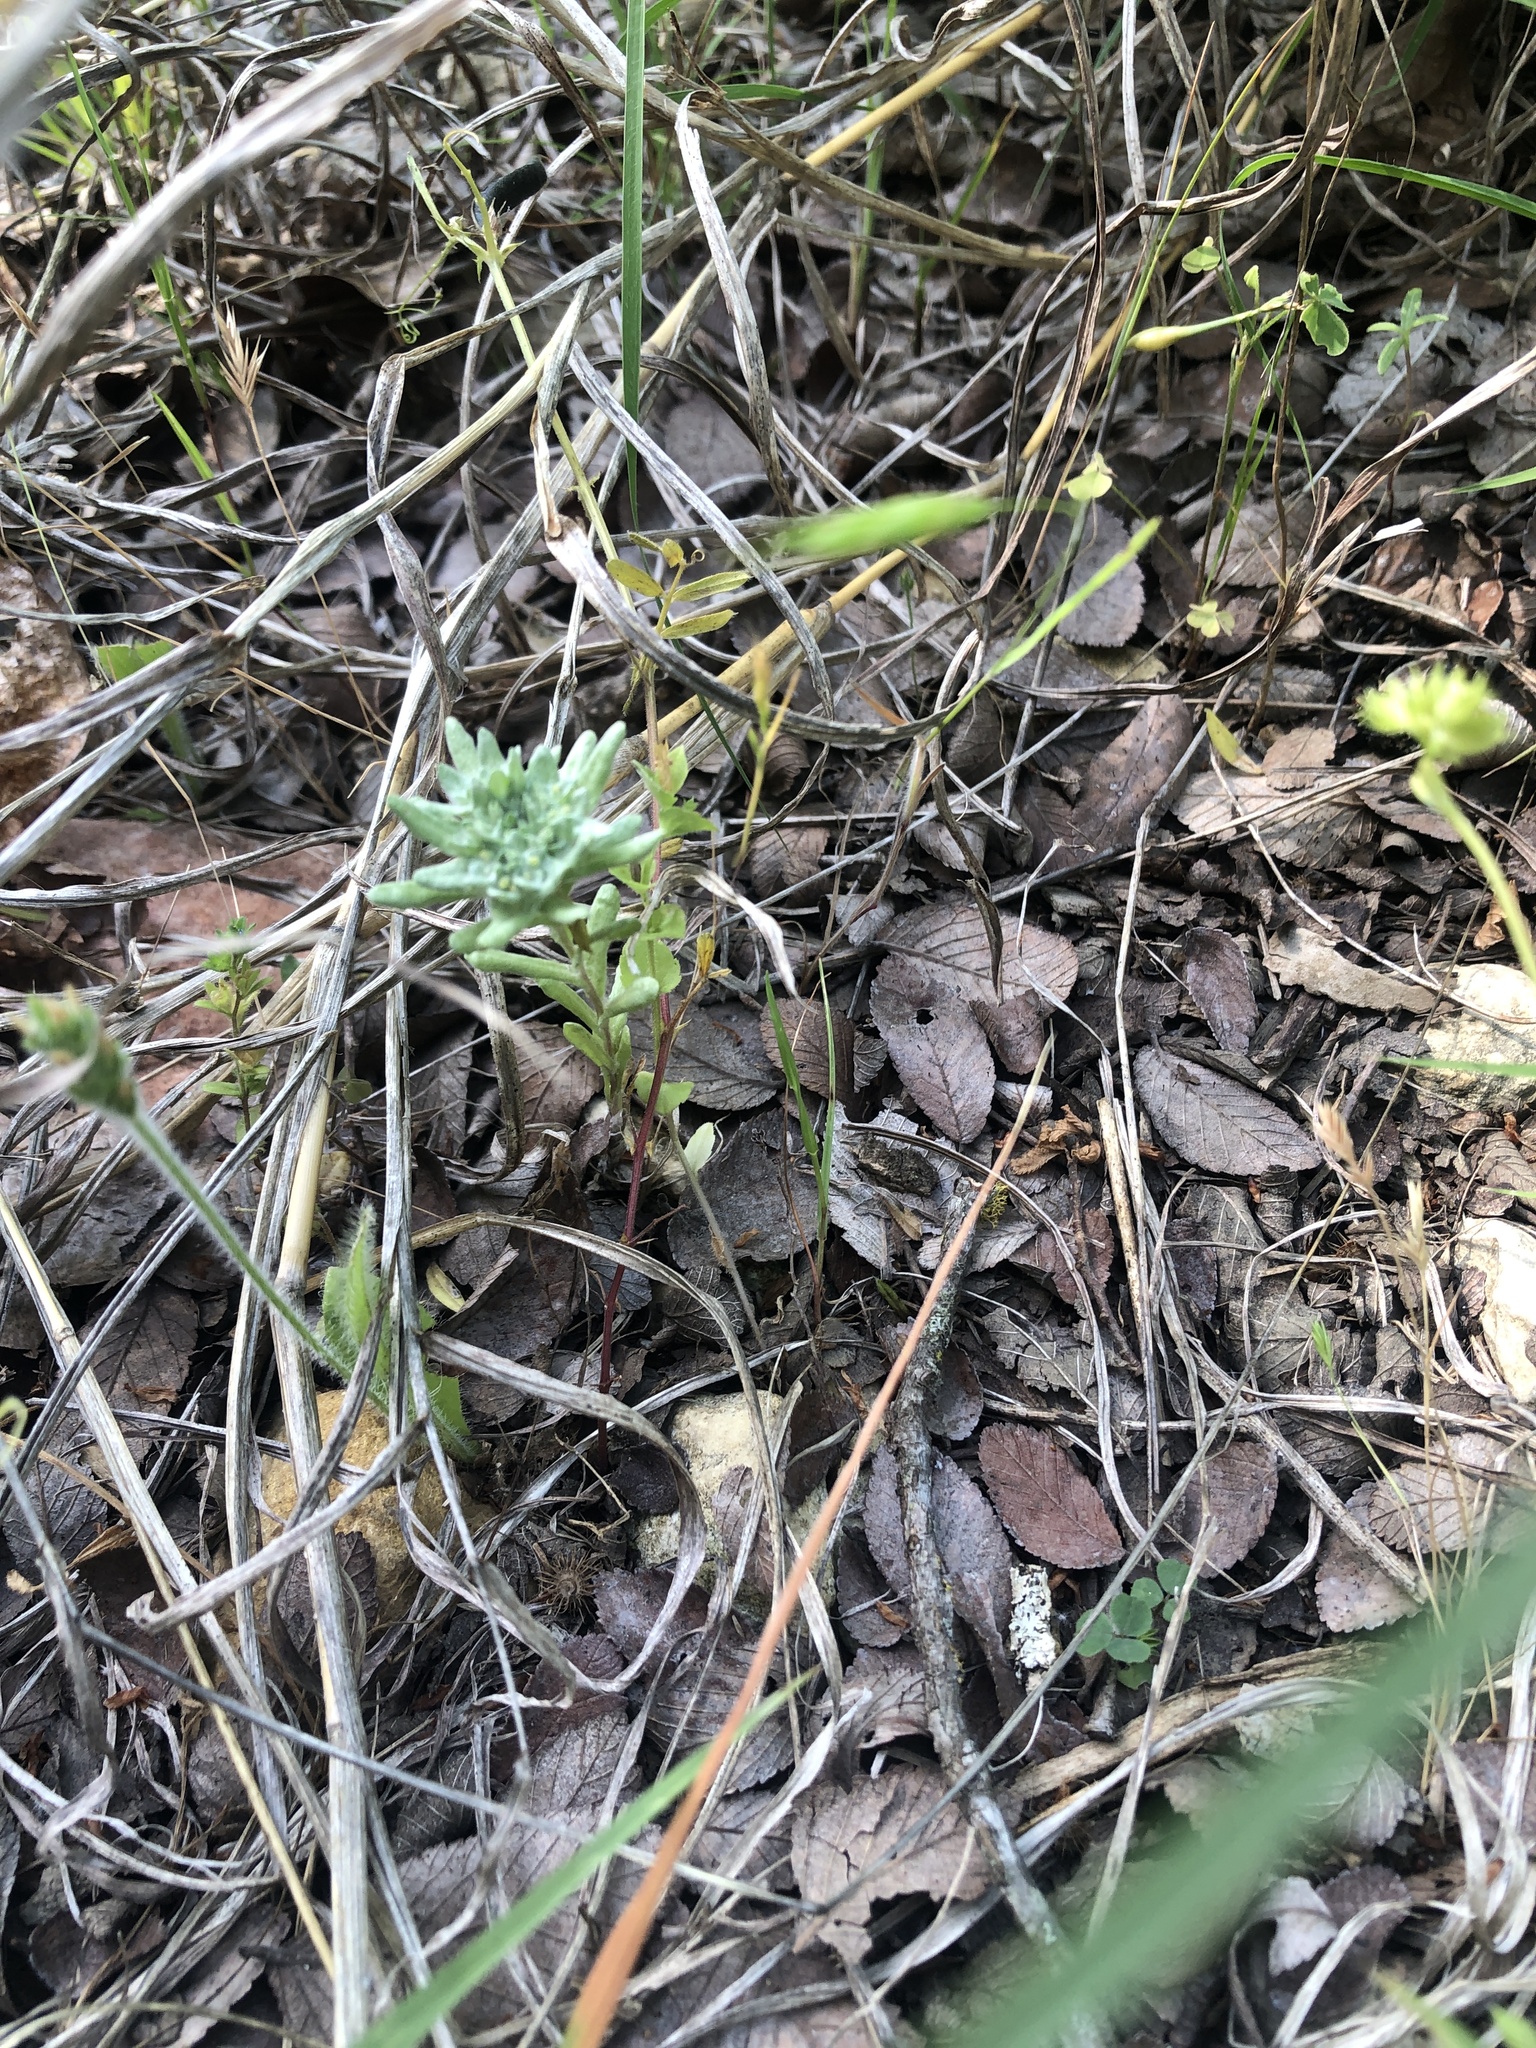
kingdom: Plantae
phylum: Tracheophyta
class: Magnoliopsida
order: Asterales
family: Asteraceae
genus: Diaperia
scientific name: Diaperia prolifera
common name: Big-head rabbit-tobacco
